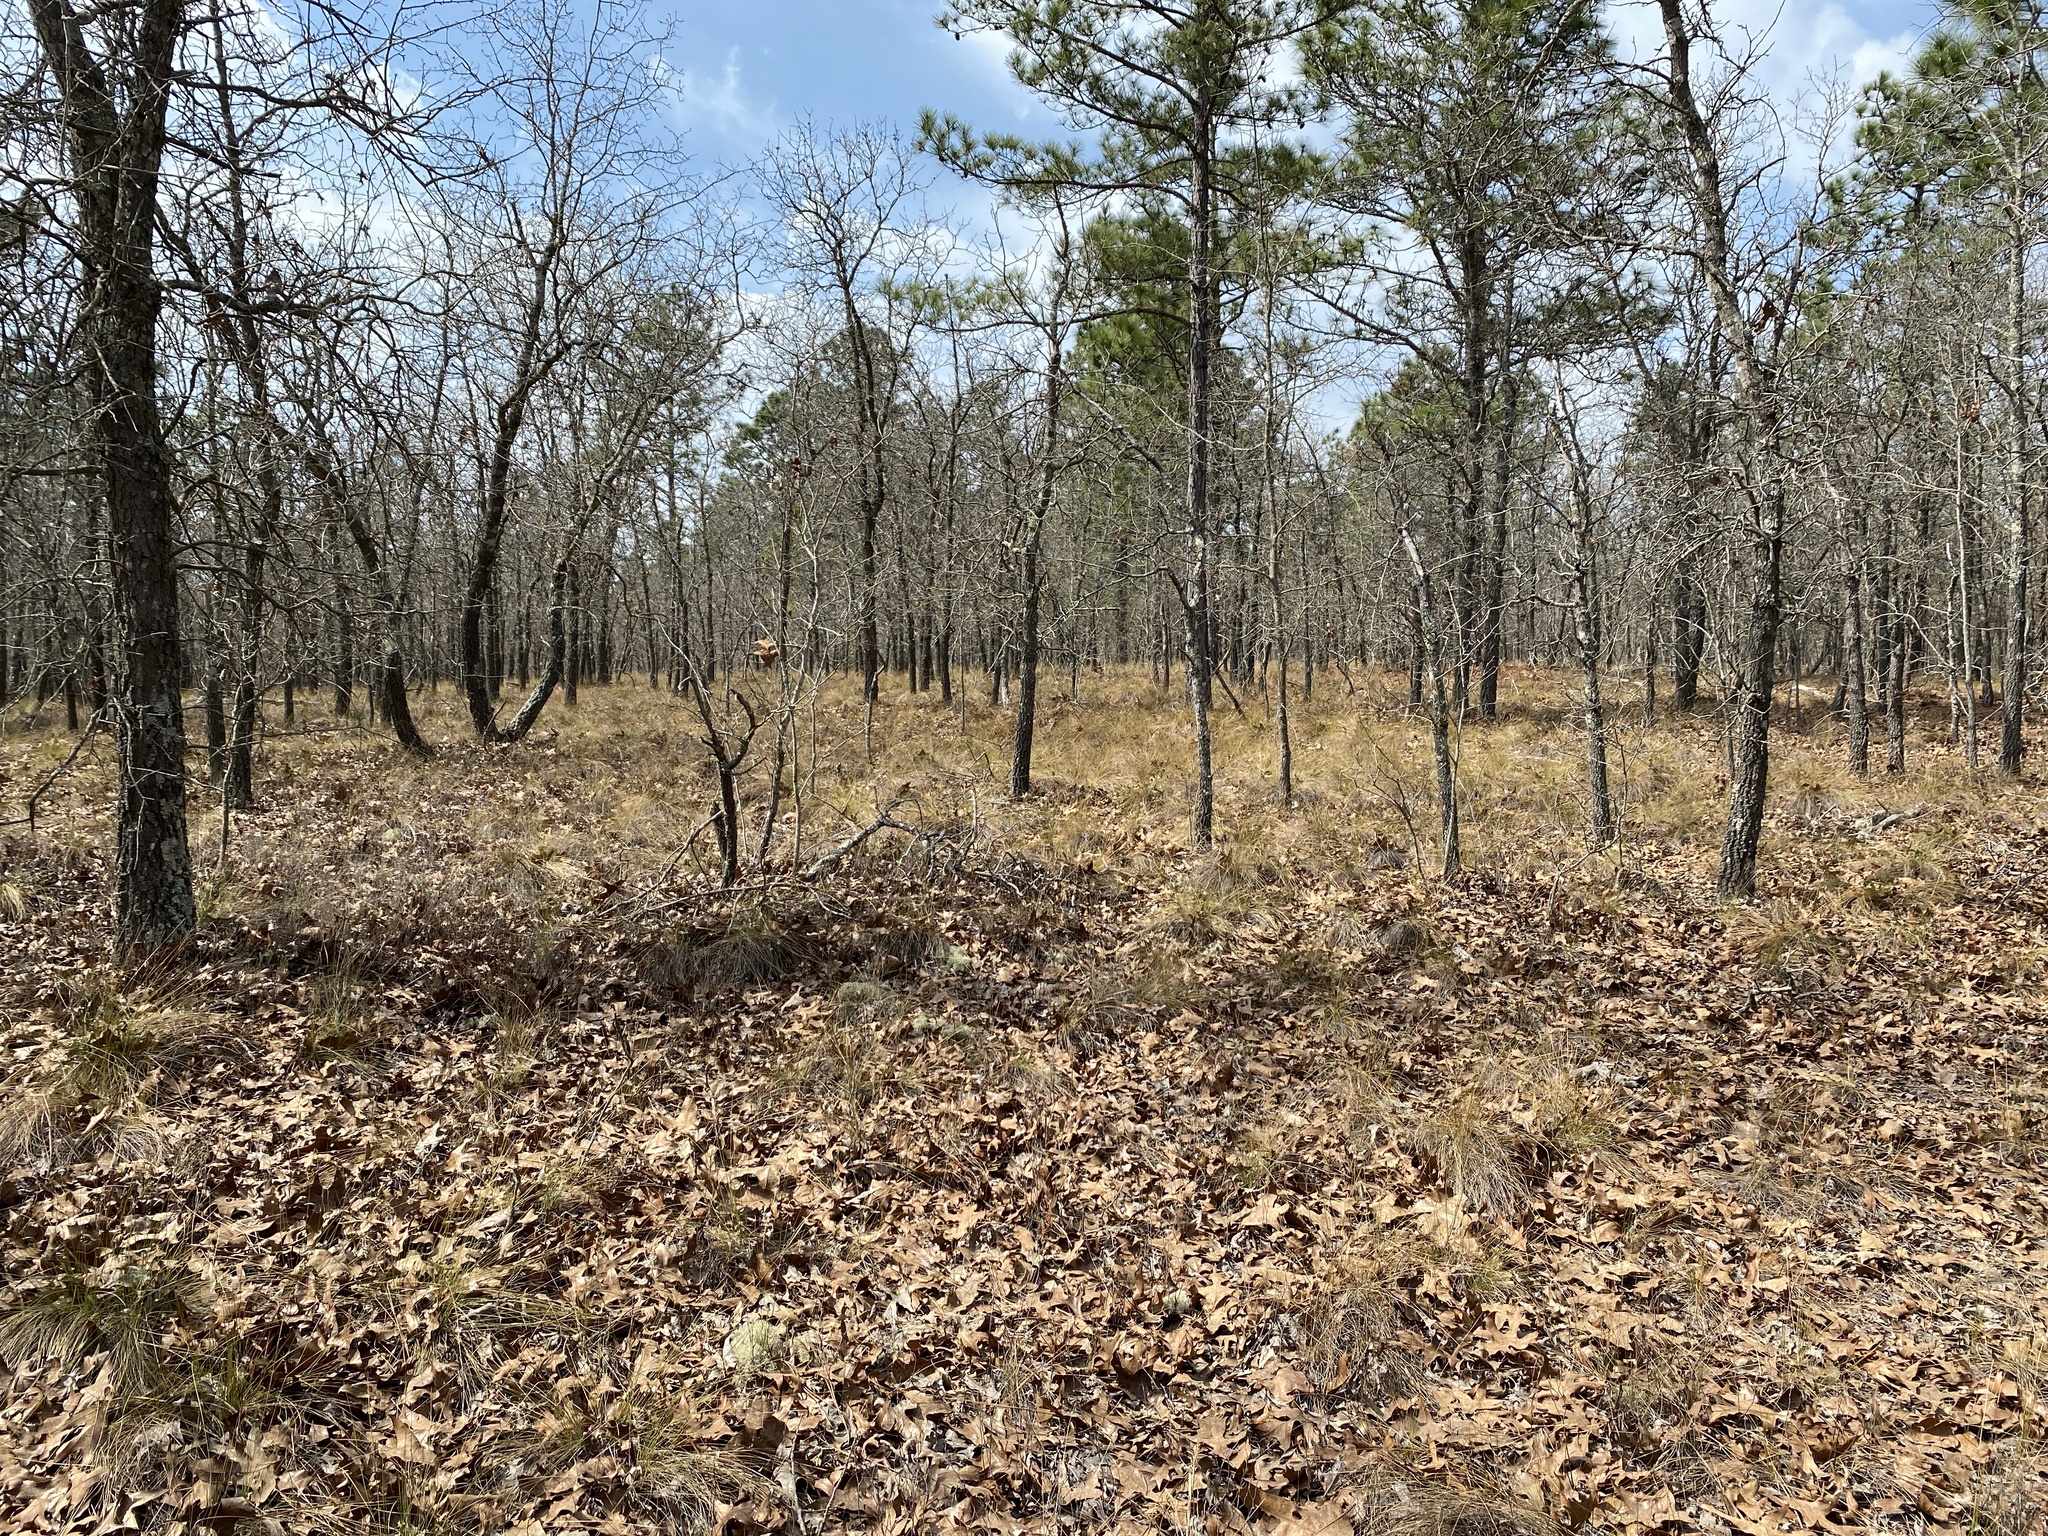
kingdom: Plantae
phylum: Tracheophyta
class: Liliopsida
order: Poales
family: Poaceae
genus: Aristida
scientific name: Aristida stricta
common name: Pineland three-awn
